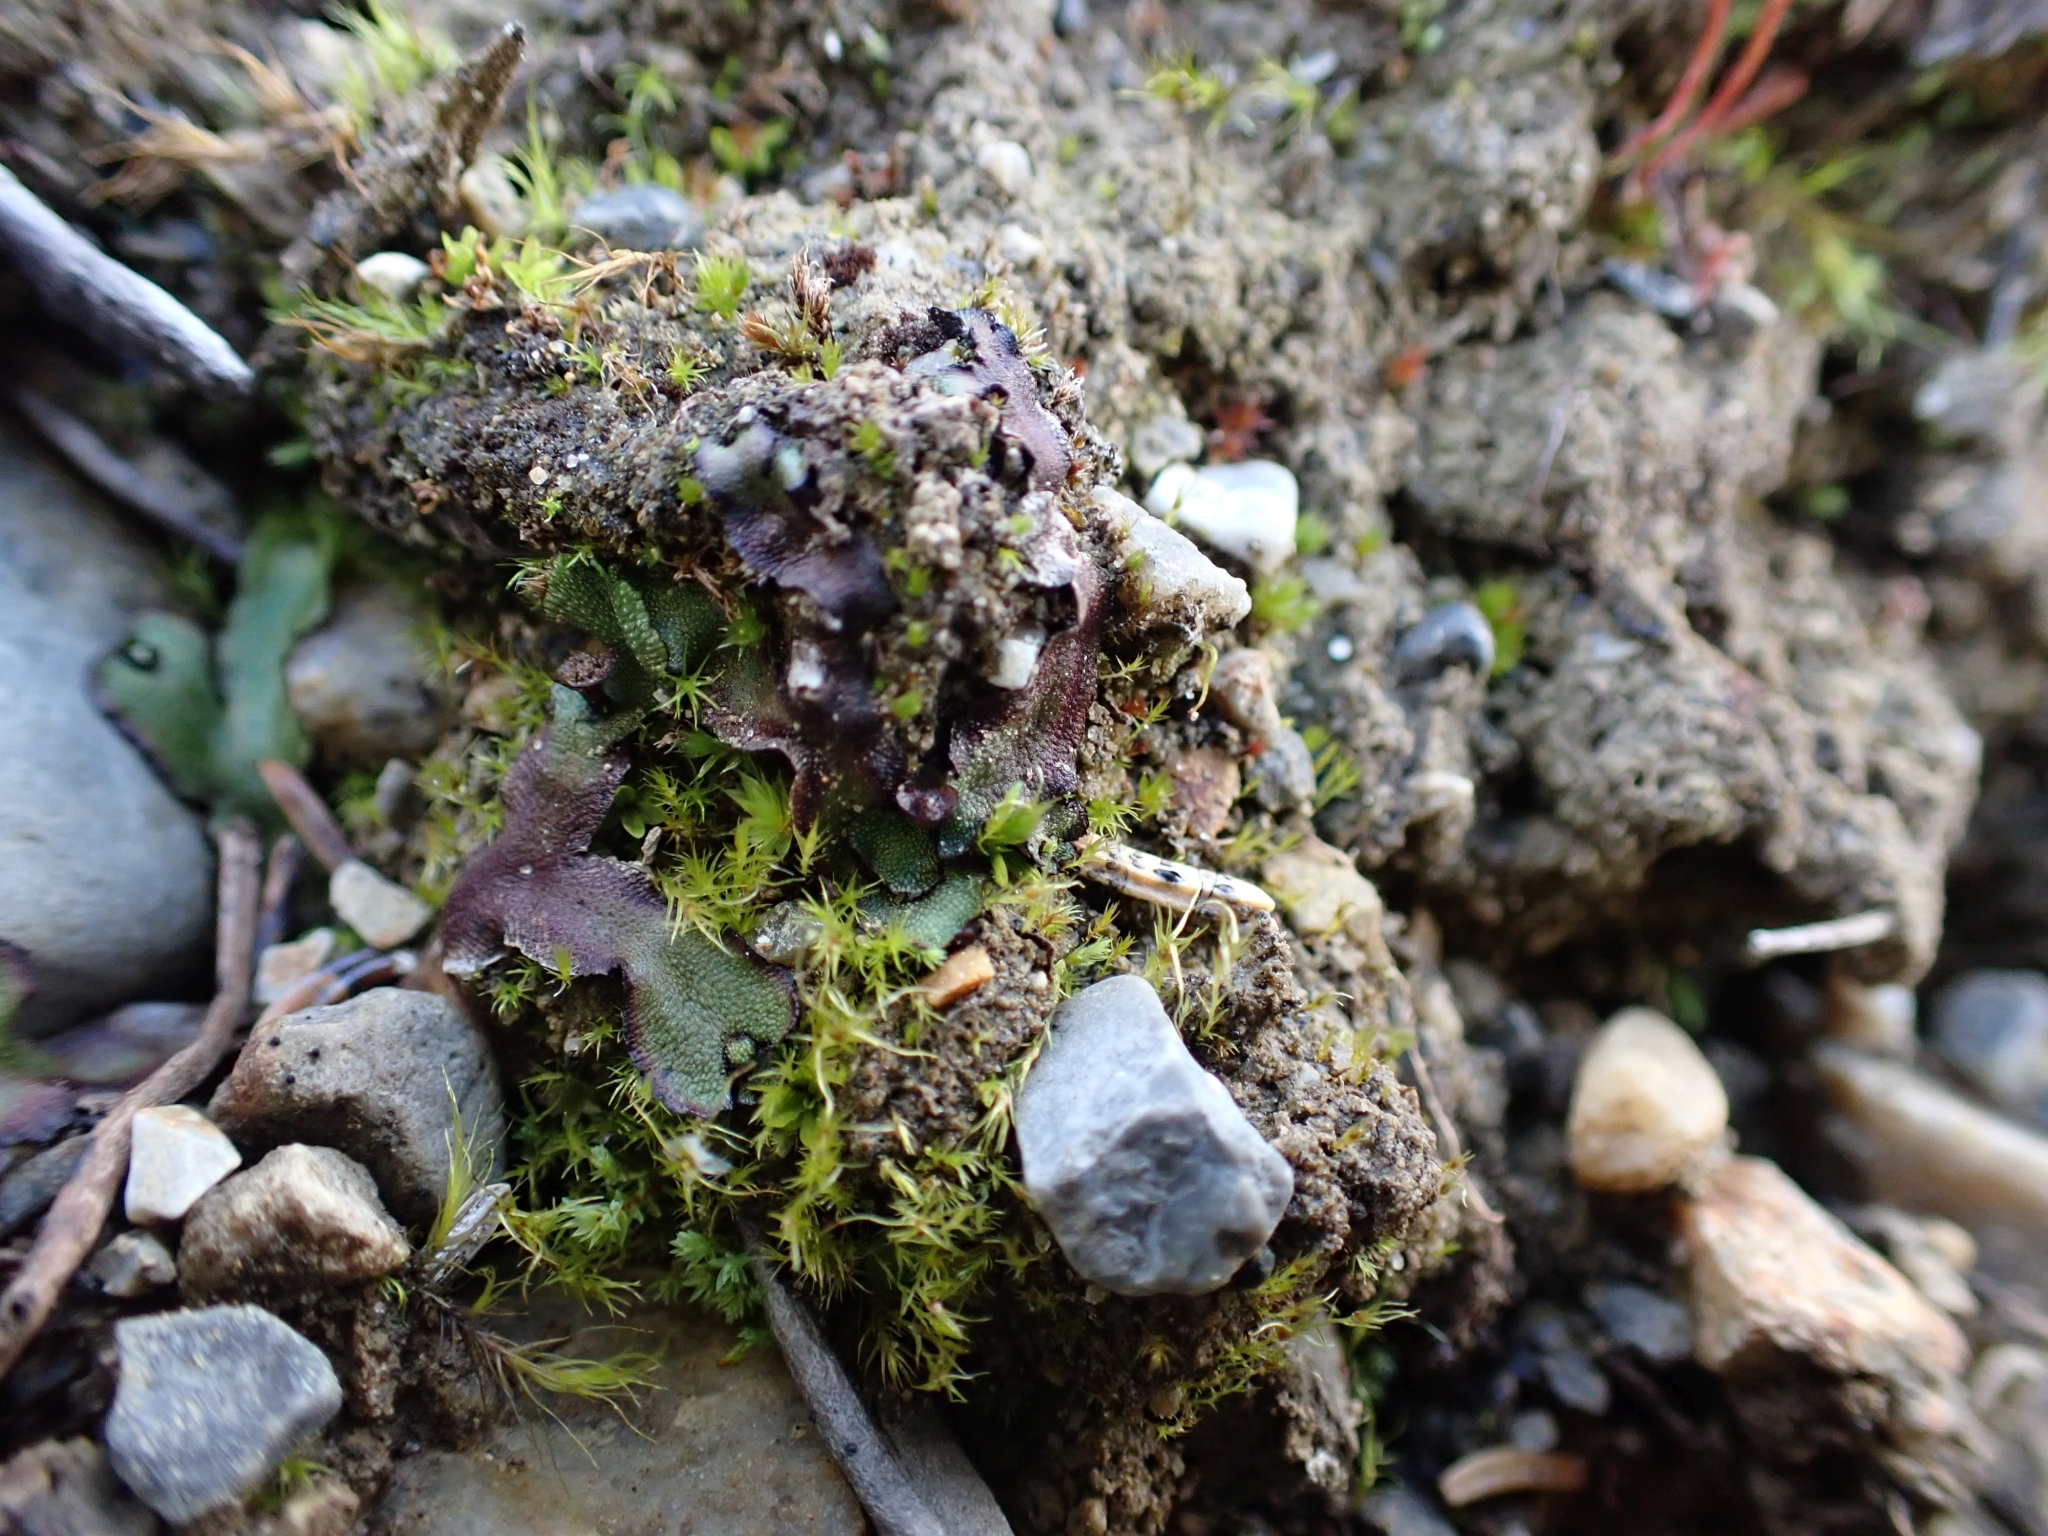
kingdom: Plantae
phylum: Marchantiophyta
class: Marchantiopsida
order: Marchantiales
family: Marchantiaceae
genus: Marchantia
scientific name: Marchantia quadrata
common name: Narrow mushroom-headed liverwort
